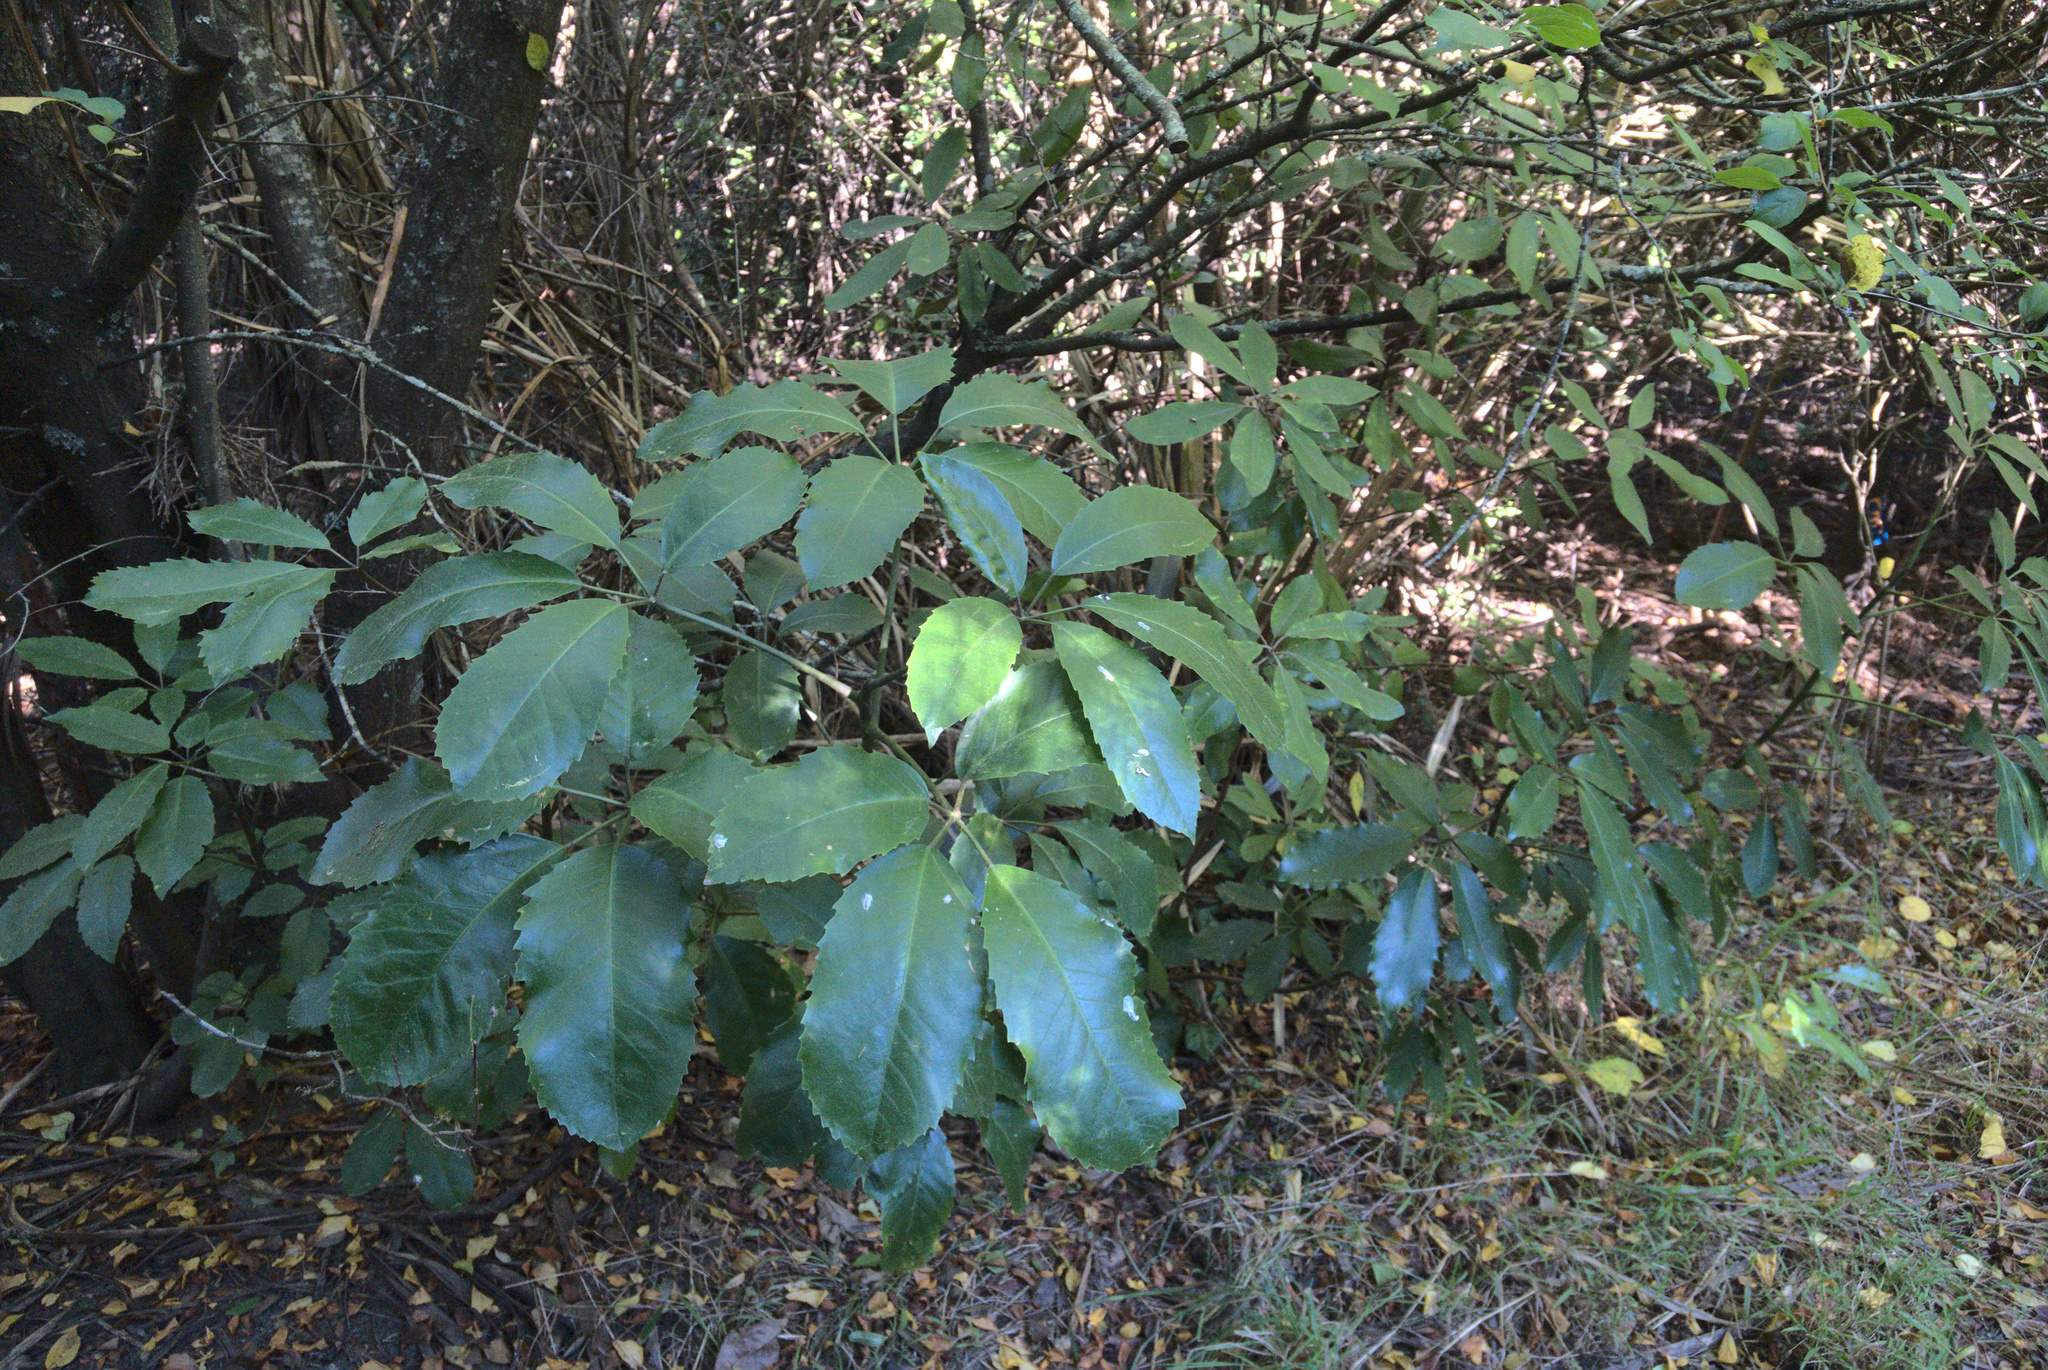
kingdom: Plantae
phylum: Tracheophyta
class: Magnoliopsida
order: Apiales
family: Araliaceae
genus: Neopanax
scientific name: Neopanax arboreus
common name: Five-fingers
